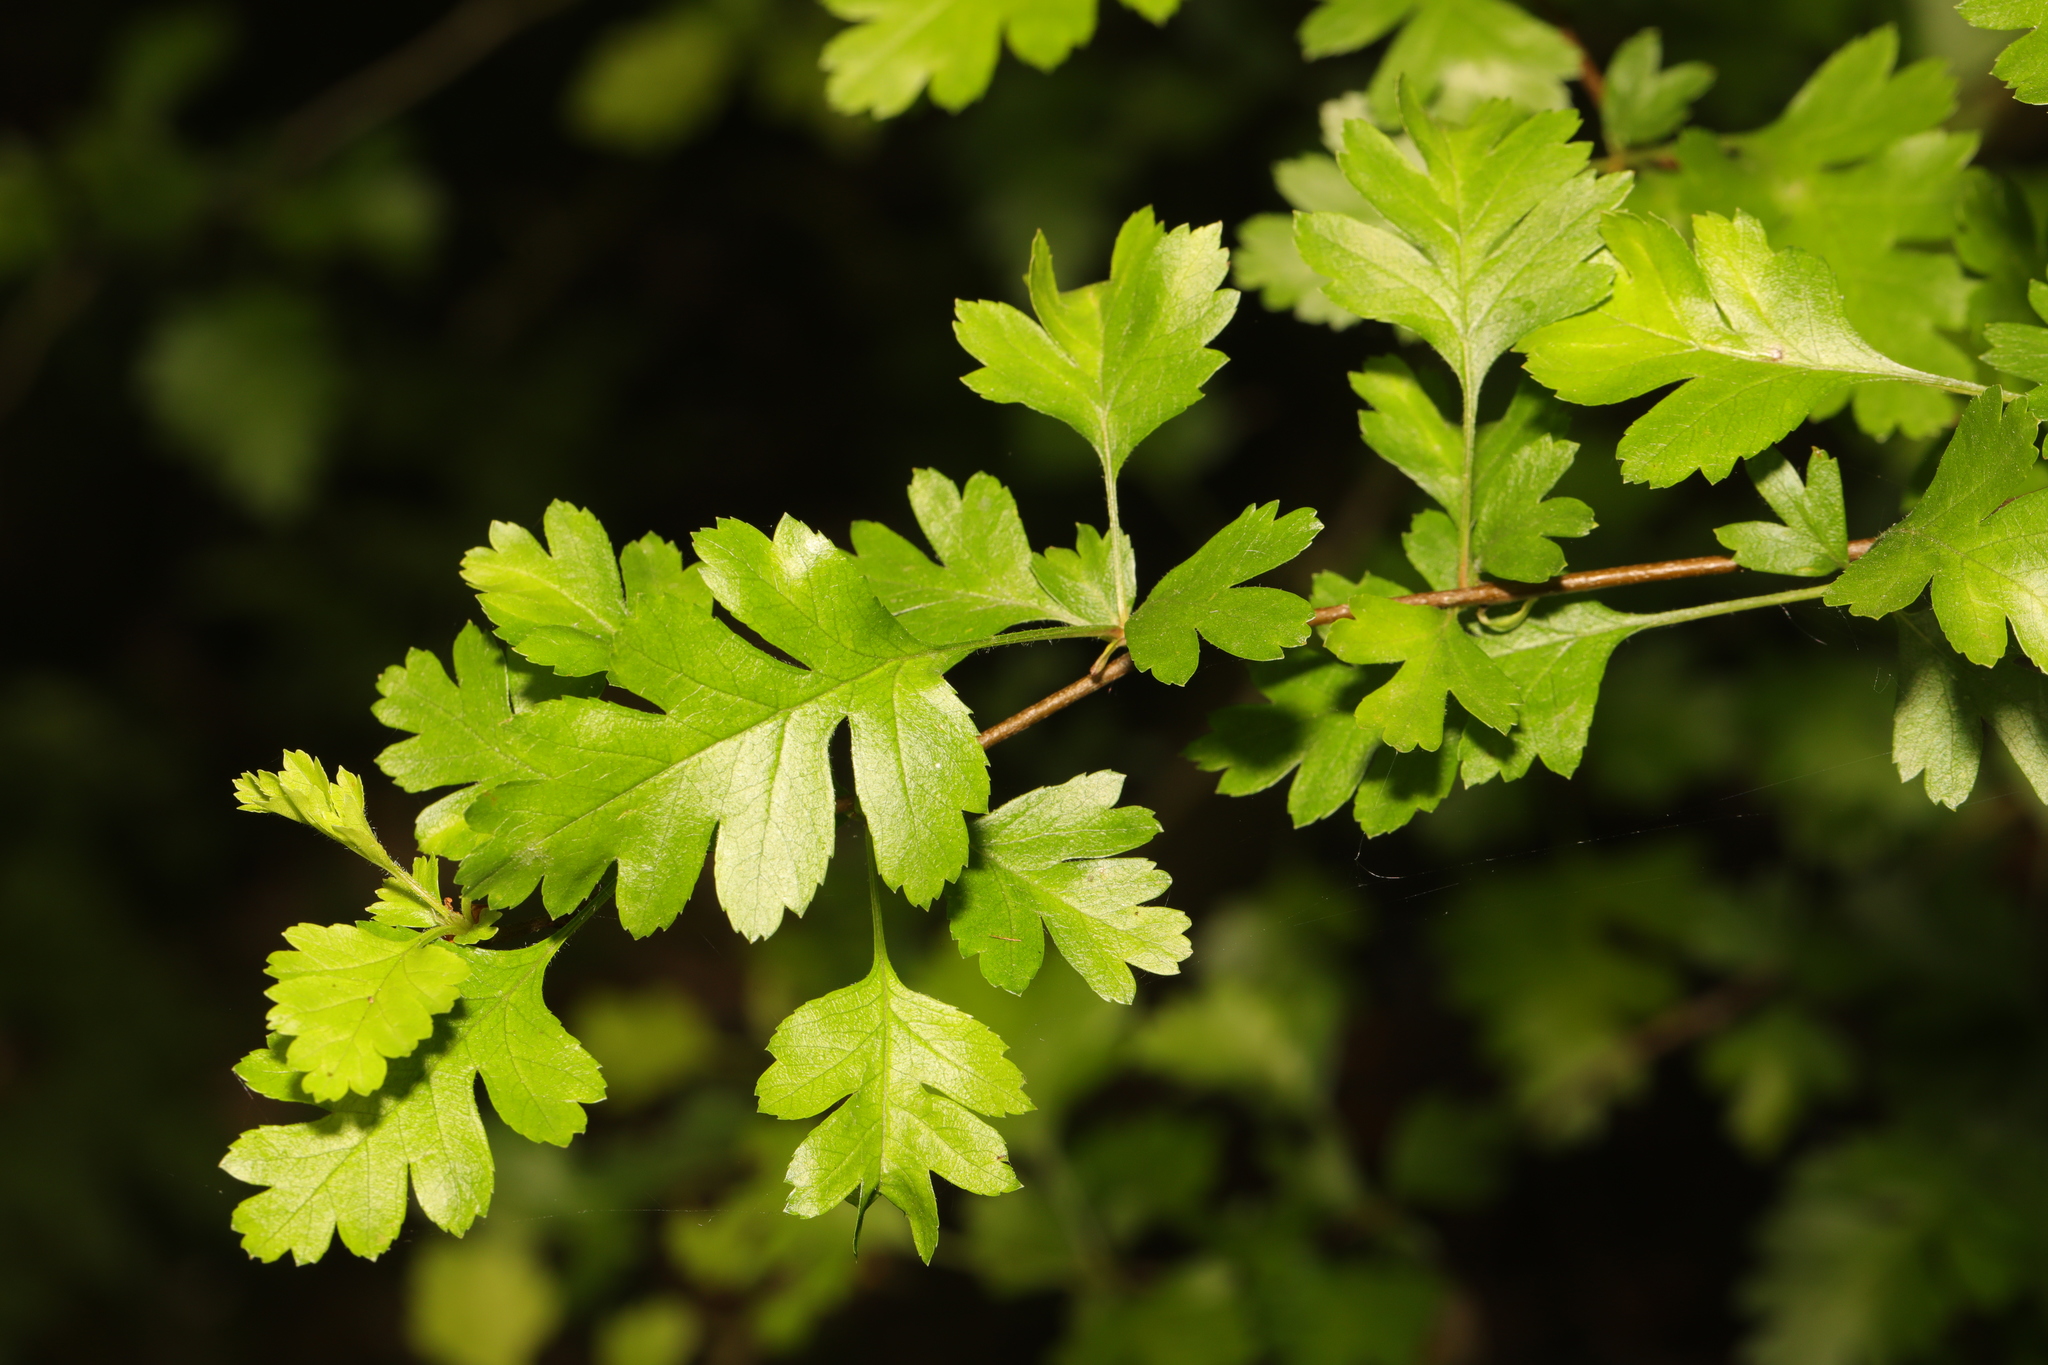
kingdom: Plantae
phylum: Tracheophyta
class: Magnoliopsida
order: Rosales
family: Rosaceae
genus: Crataegus
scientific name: Crataegus monogyna
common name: Hawthorn
